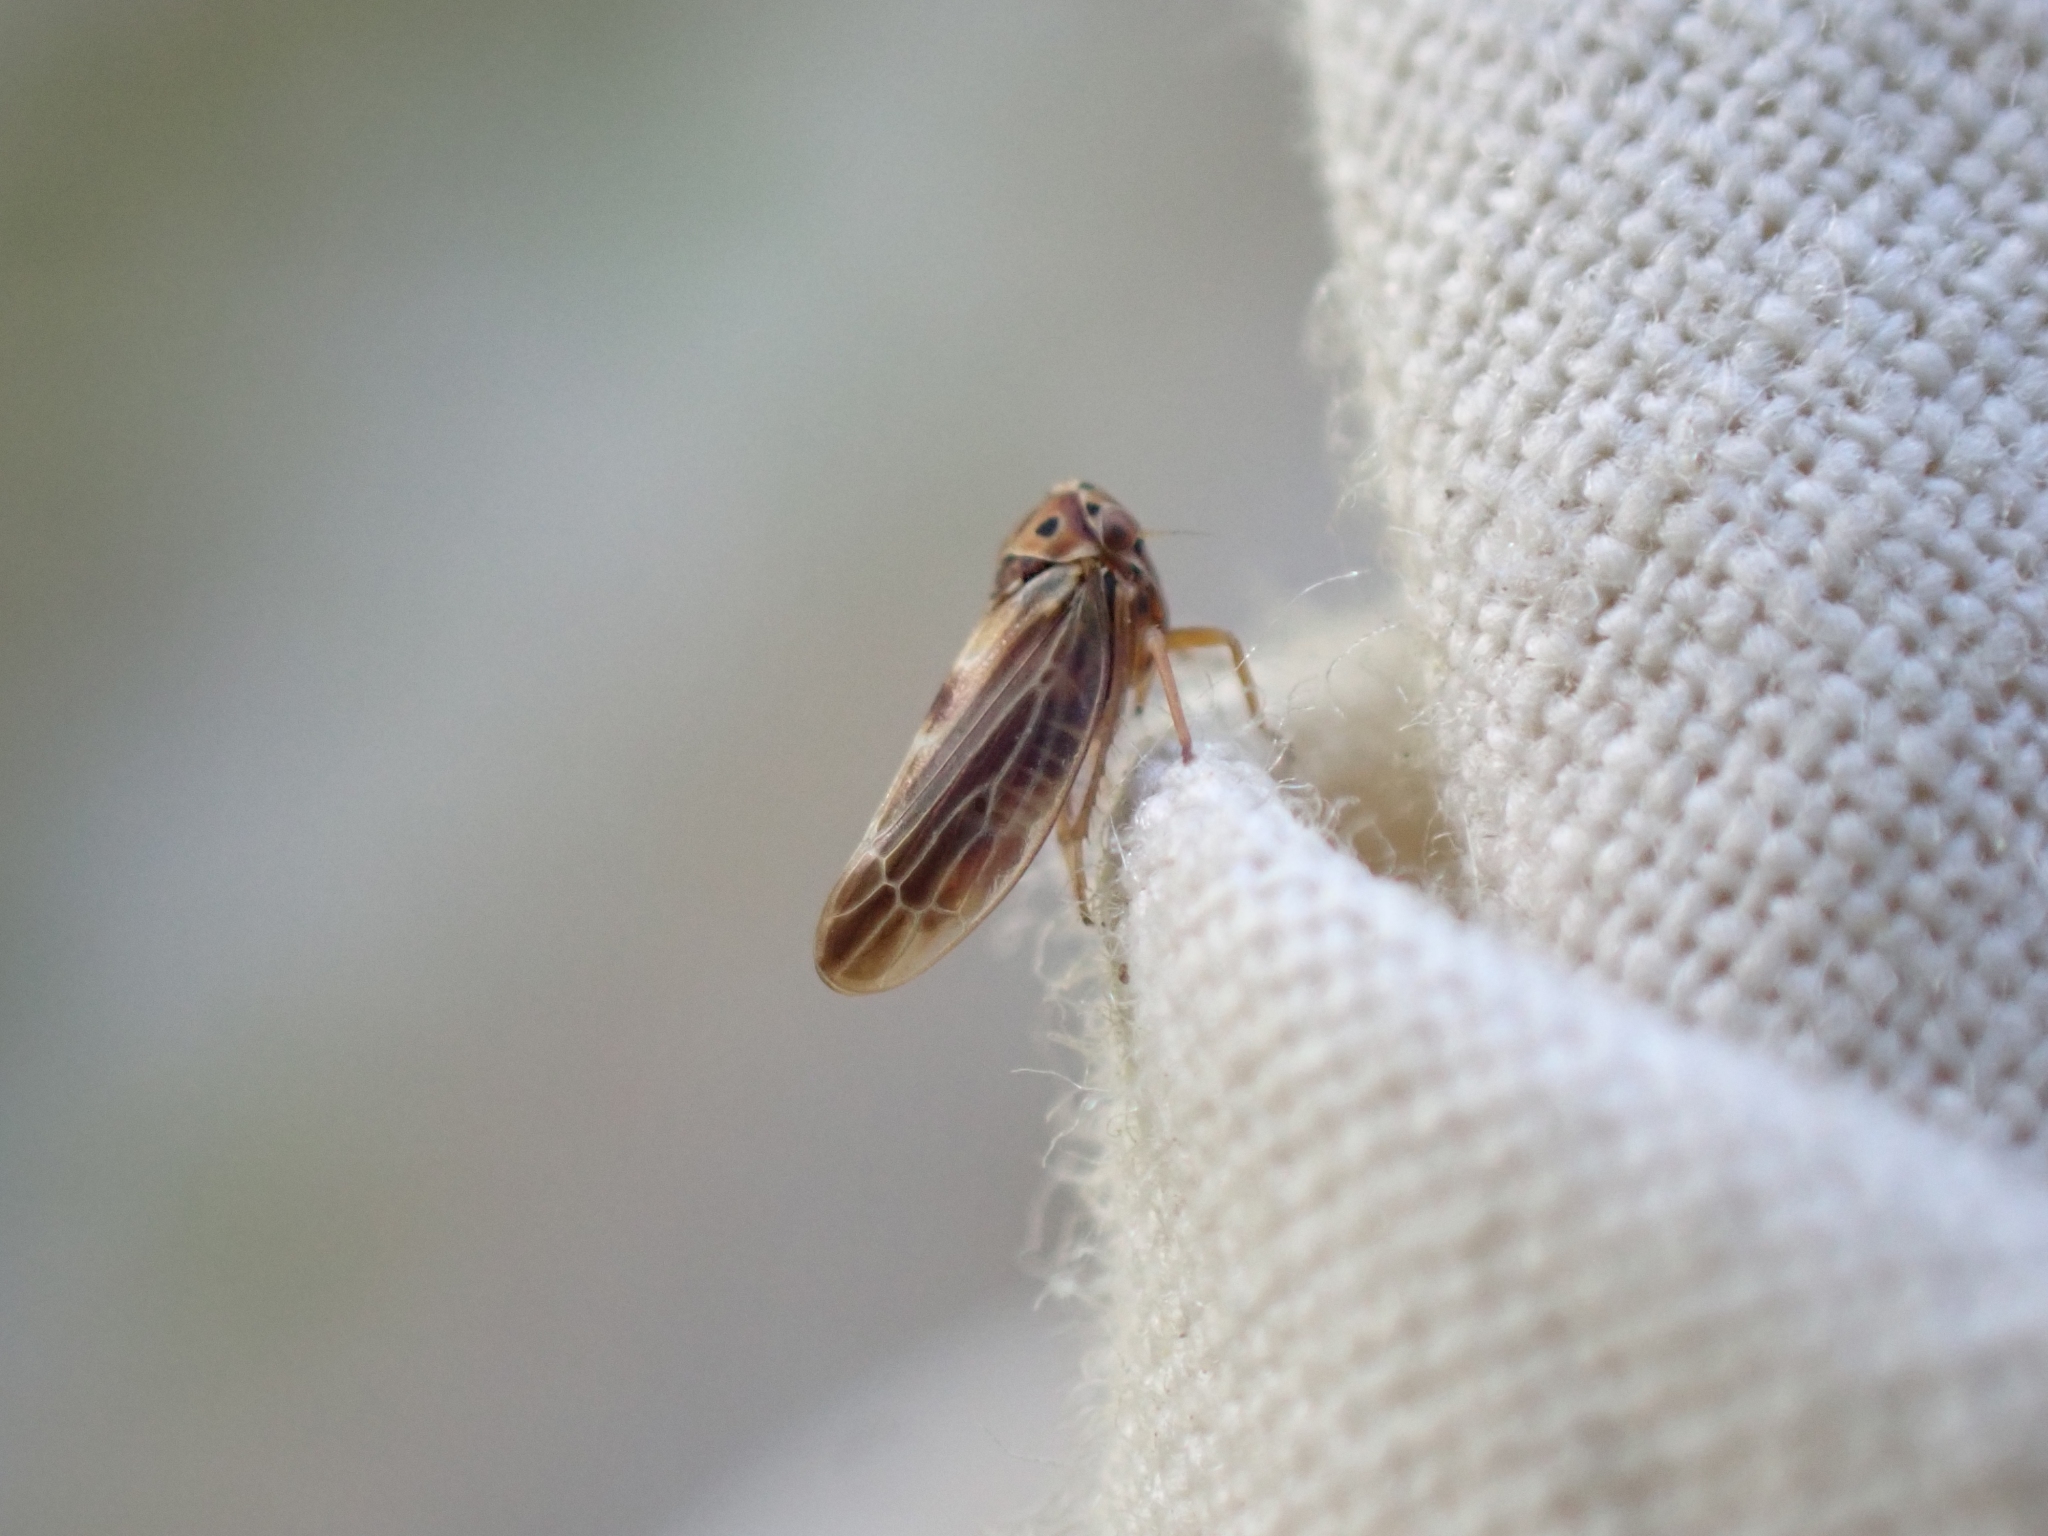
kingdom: Animalia
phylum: Arthropoda
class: Insecta
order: Hemiptera
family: Cicadellidae
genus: Agalliopsis
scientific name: Agalliopsis abietaria
